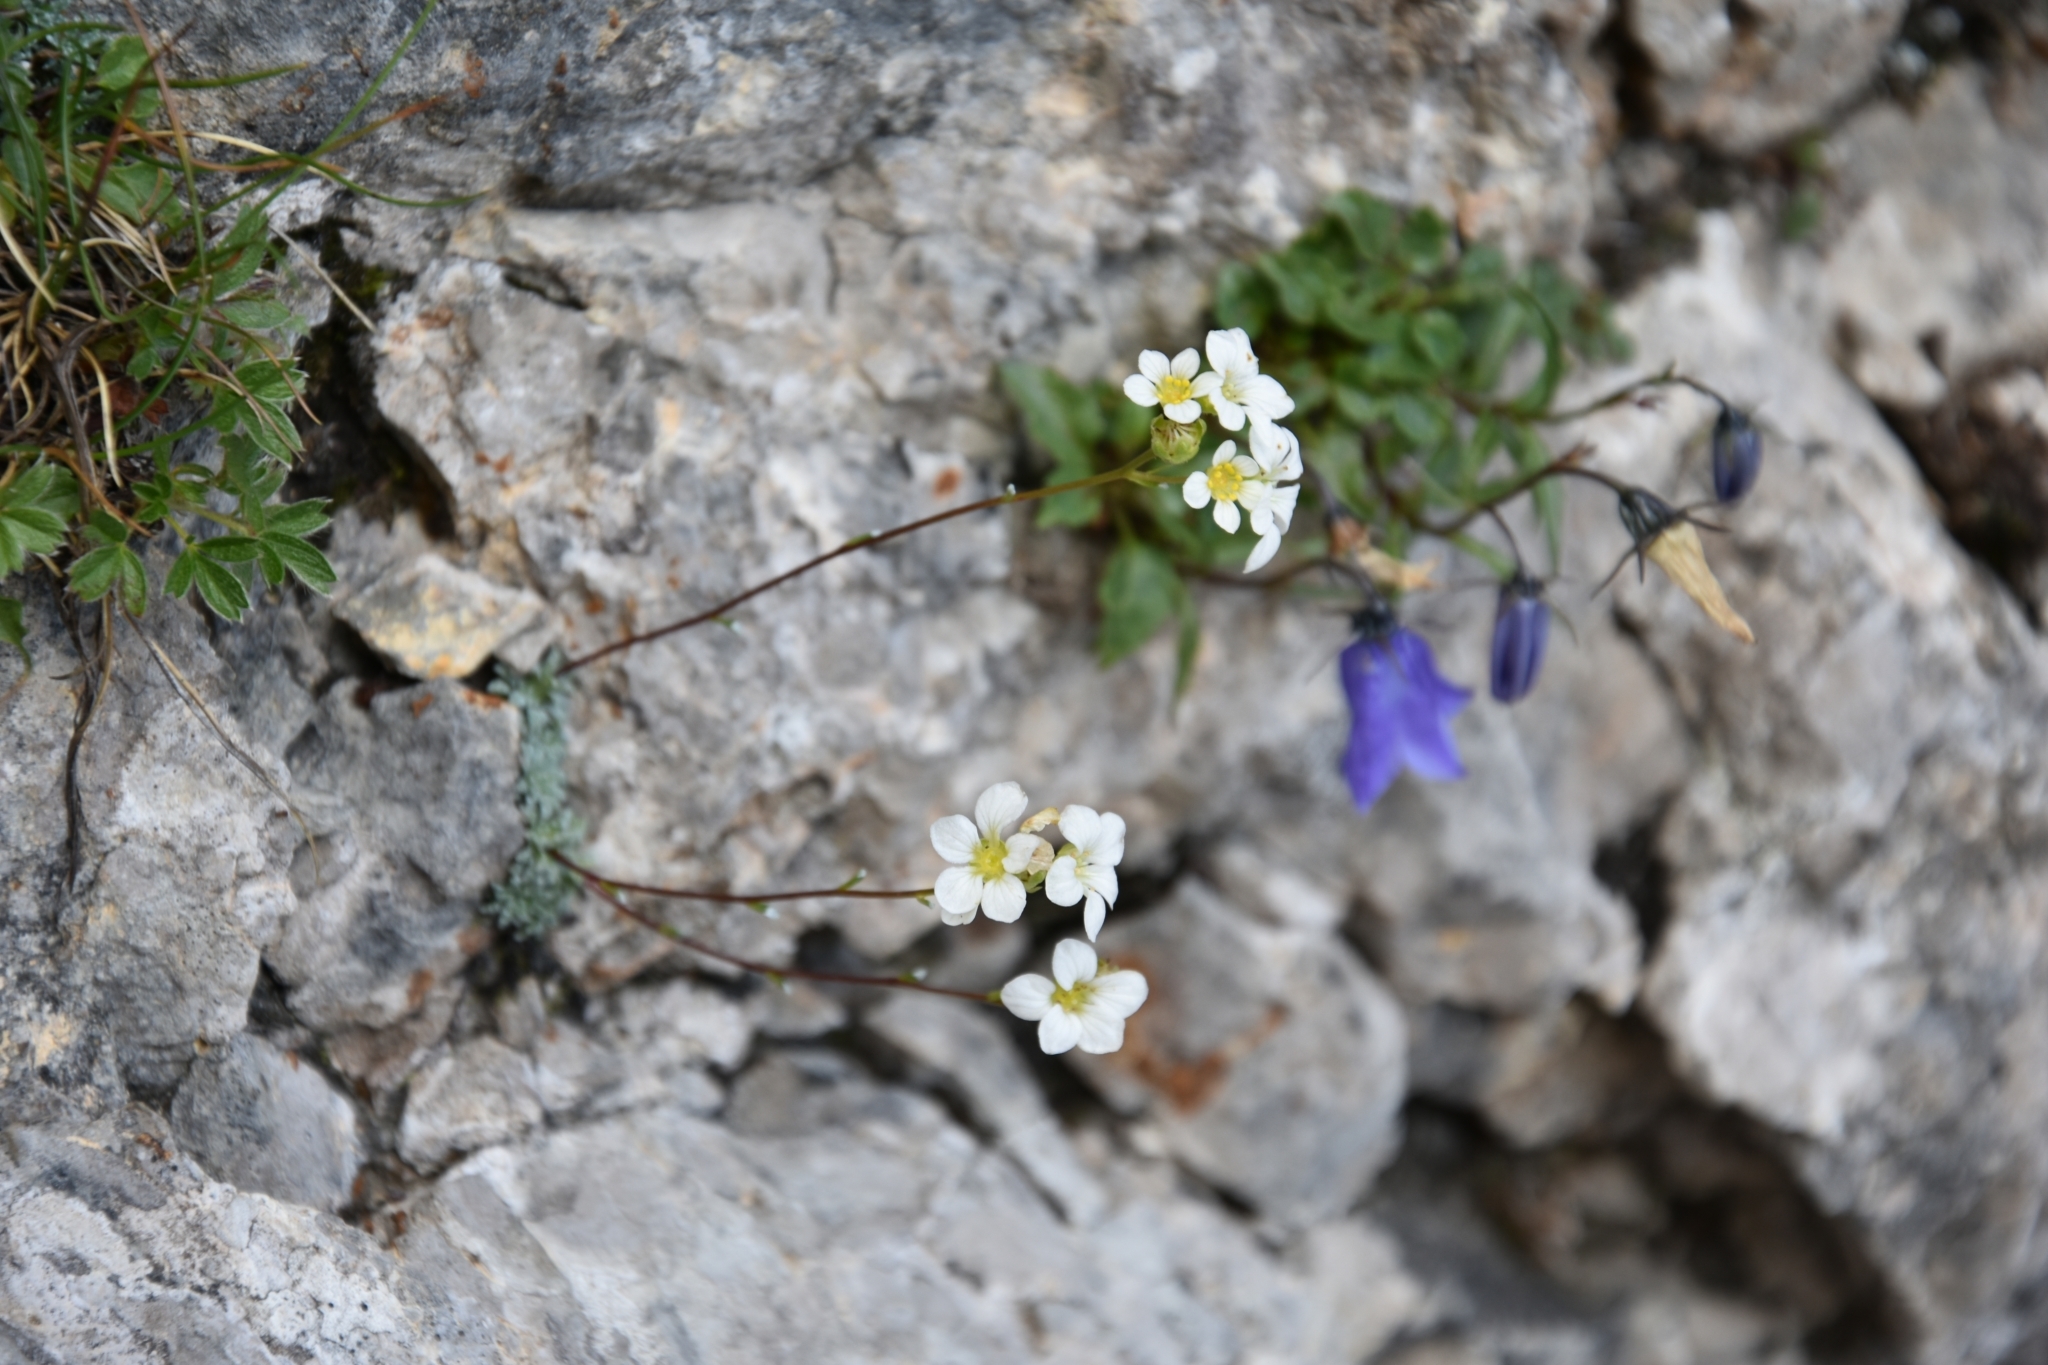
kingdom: Plantae
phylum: Tracheophyta
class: Magnoliopsida
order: Saxifragales
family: Saxifragaceae
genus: Saxifraga
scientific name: Saxifraga caesia
